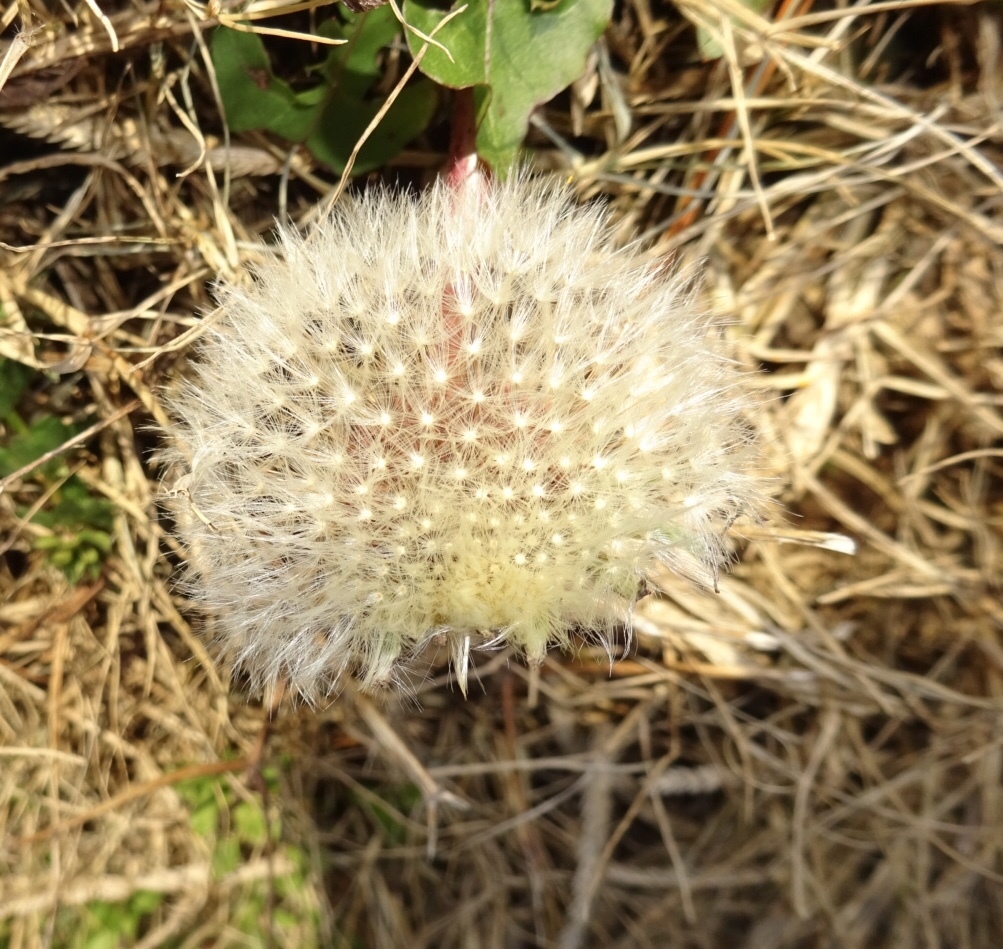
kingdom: Plantae
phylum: Tracheophyta
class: Magnoliopsida
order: Asterales
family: Asteraceae
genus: Taraxacum
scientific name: Taraxacum
